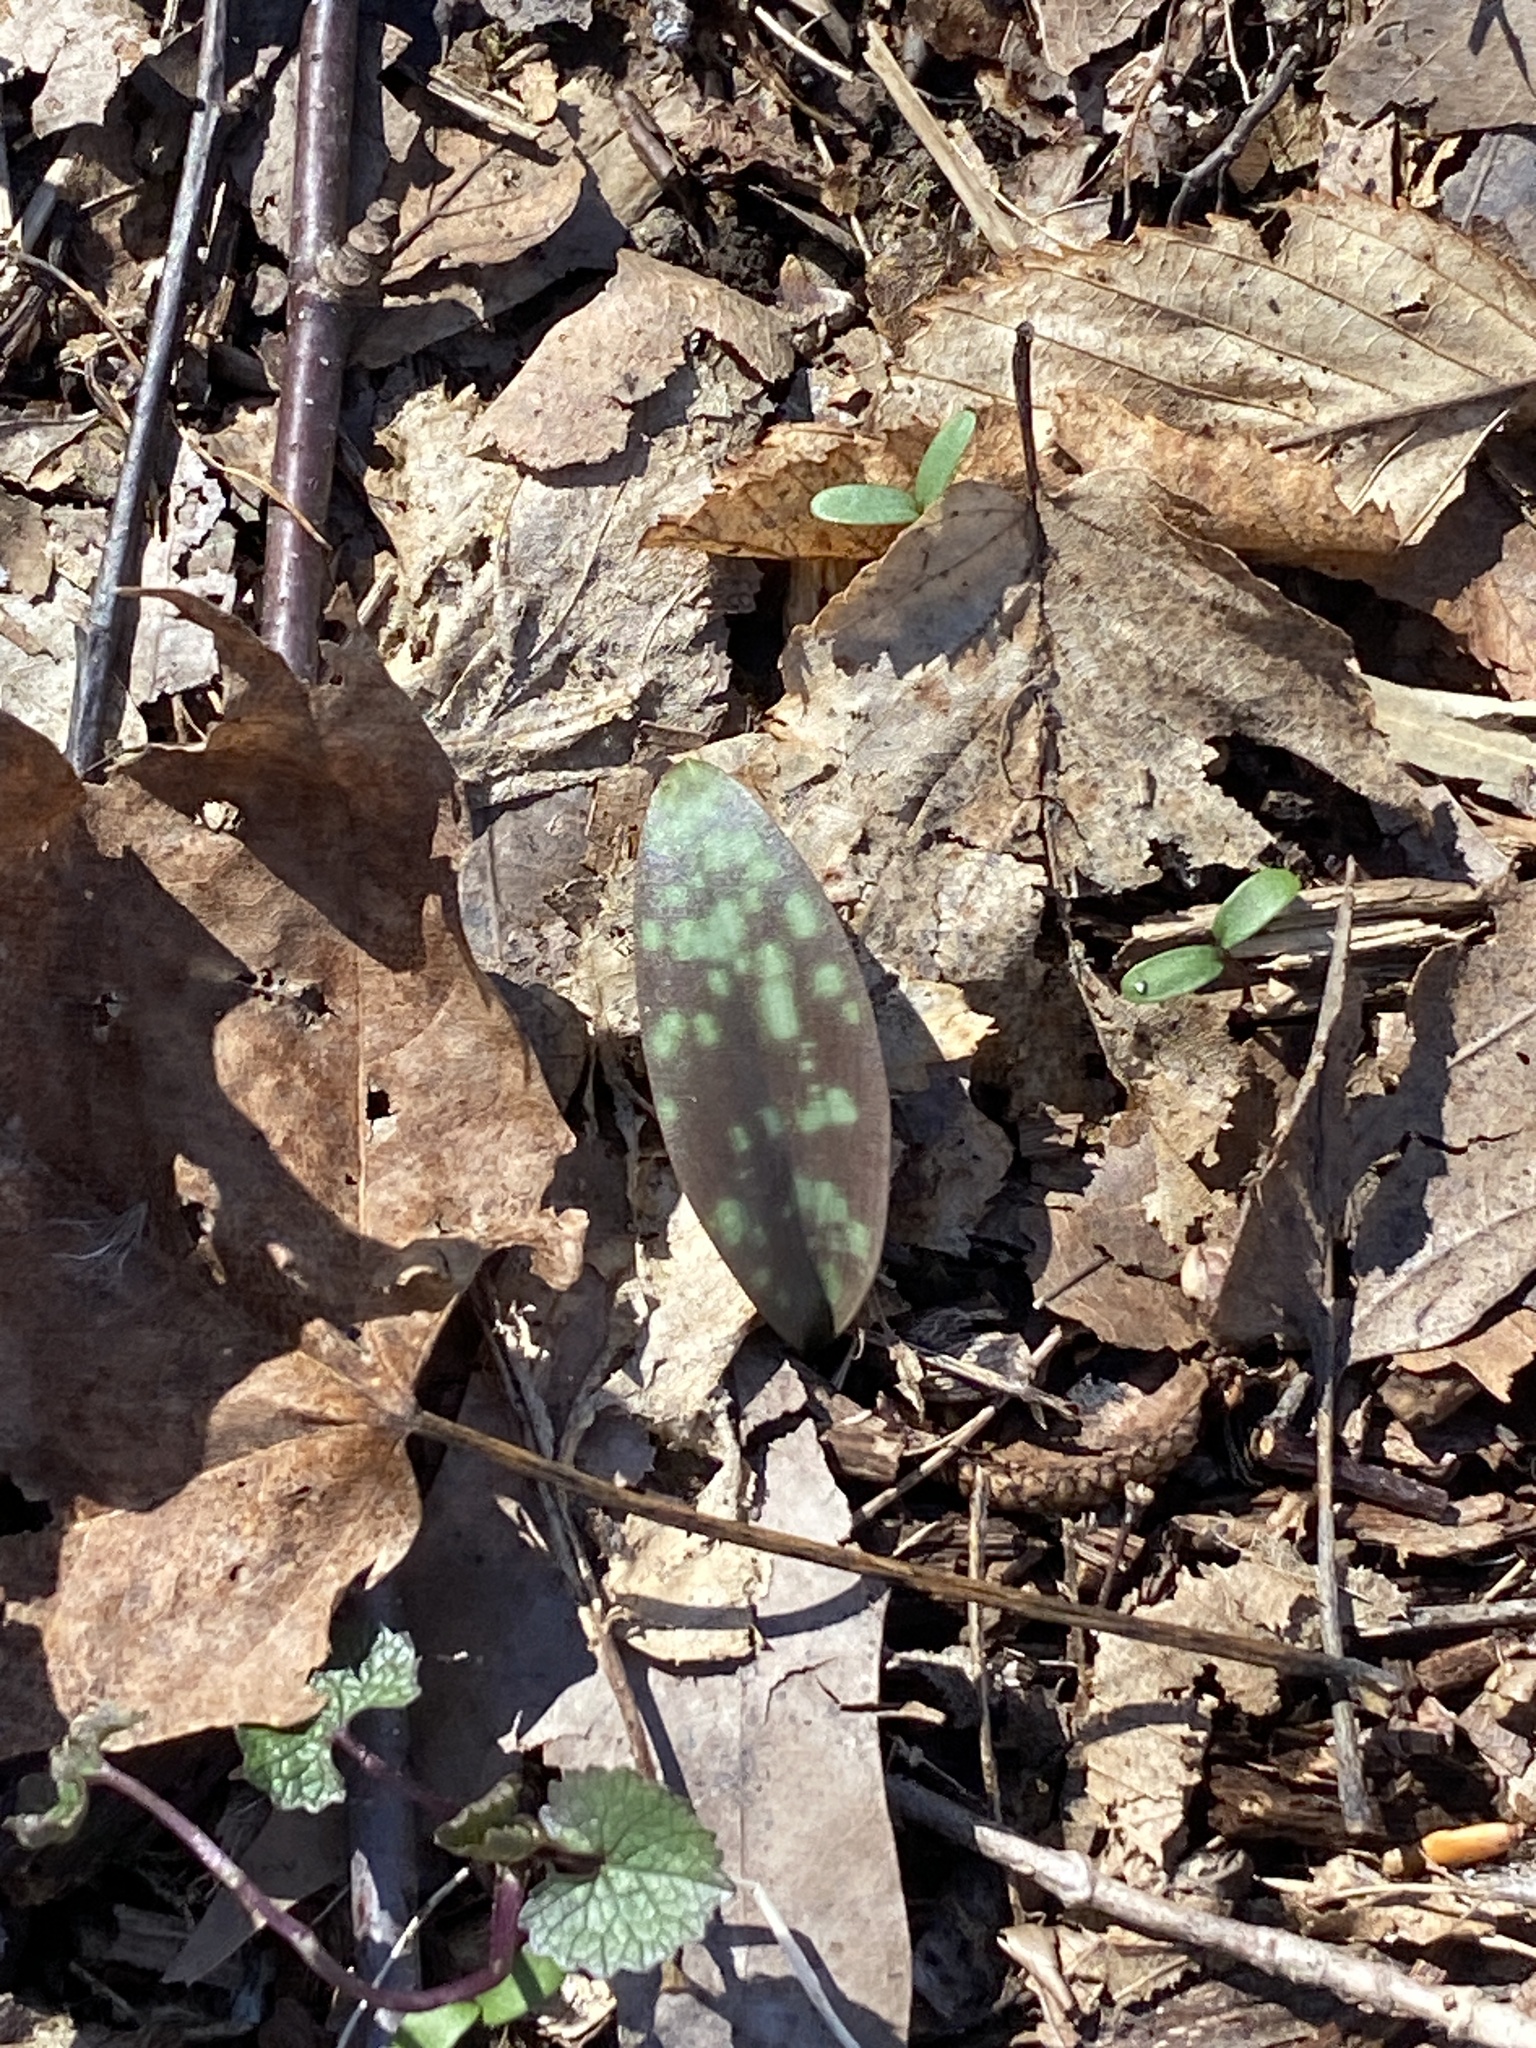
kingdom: Plantae
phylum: Tracheophyta
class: Liliopsida
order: Liliales
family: Liliaceae
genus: Erythronium
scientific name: Erythronium americanum
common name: Yellow adder's-tongue
